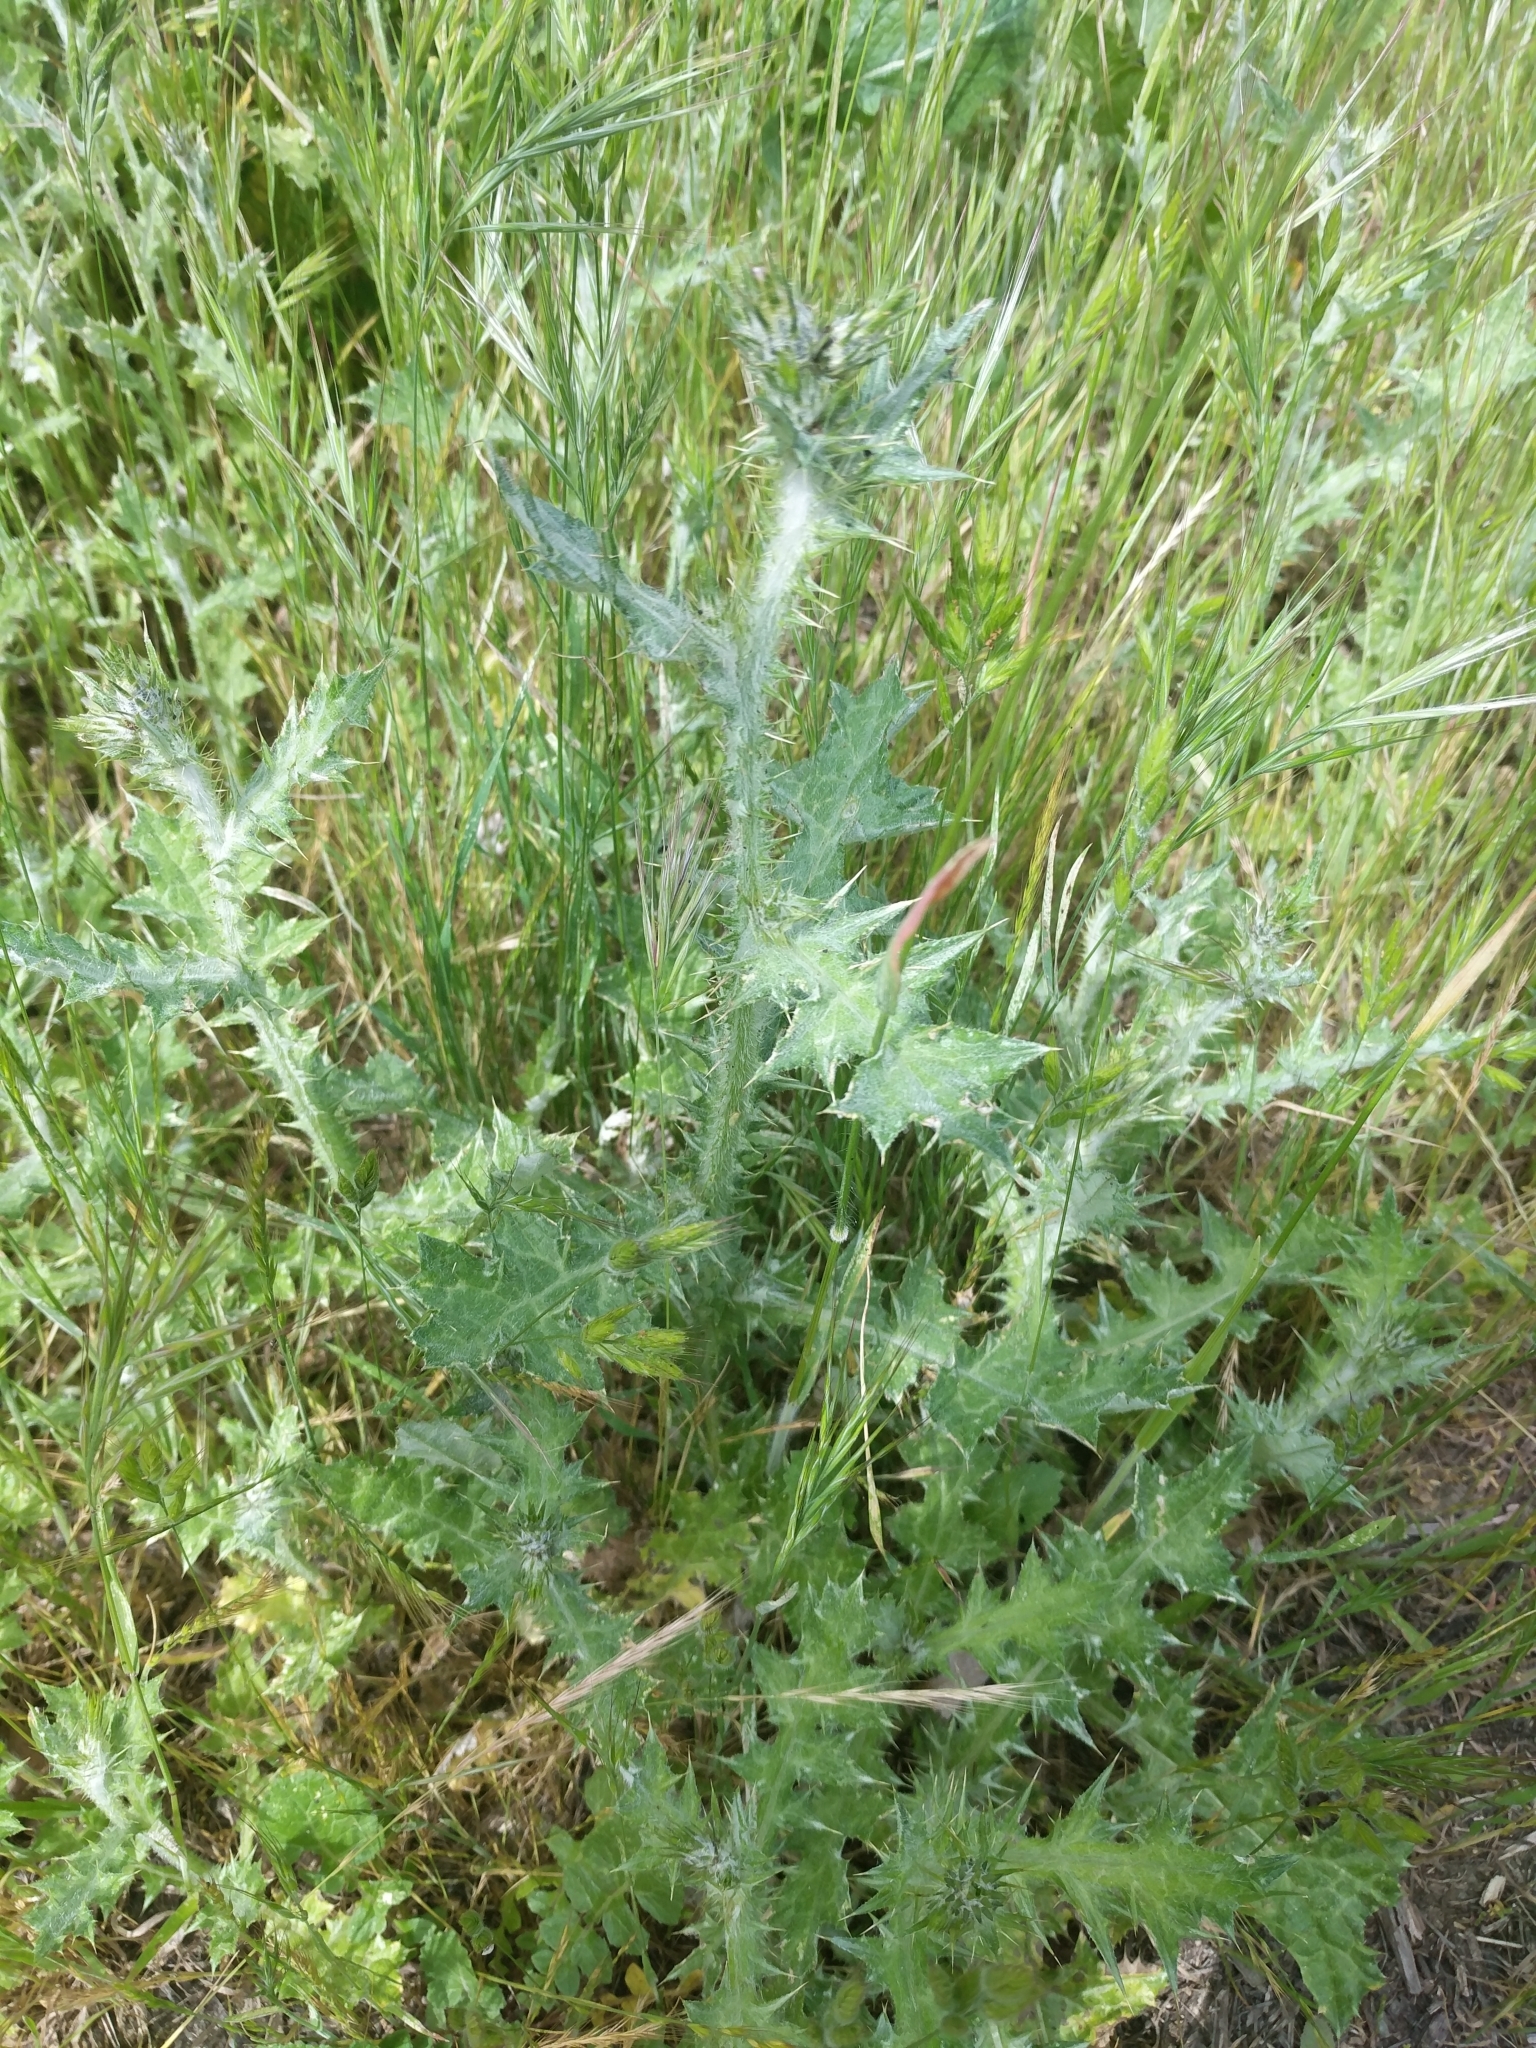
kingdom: Plantae
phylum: Tracheophyta
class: Magnoliopsida
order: Asterales
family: Asteraceae
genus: Carduus
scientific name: Carduus pycnocephalus
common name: Plymouth thistle
